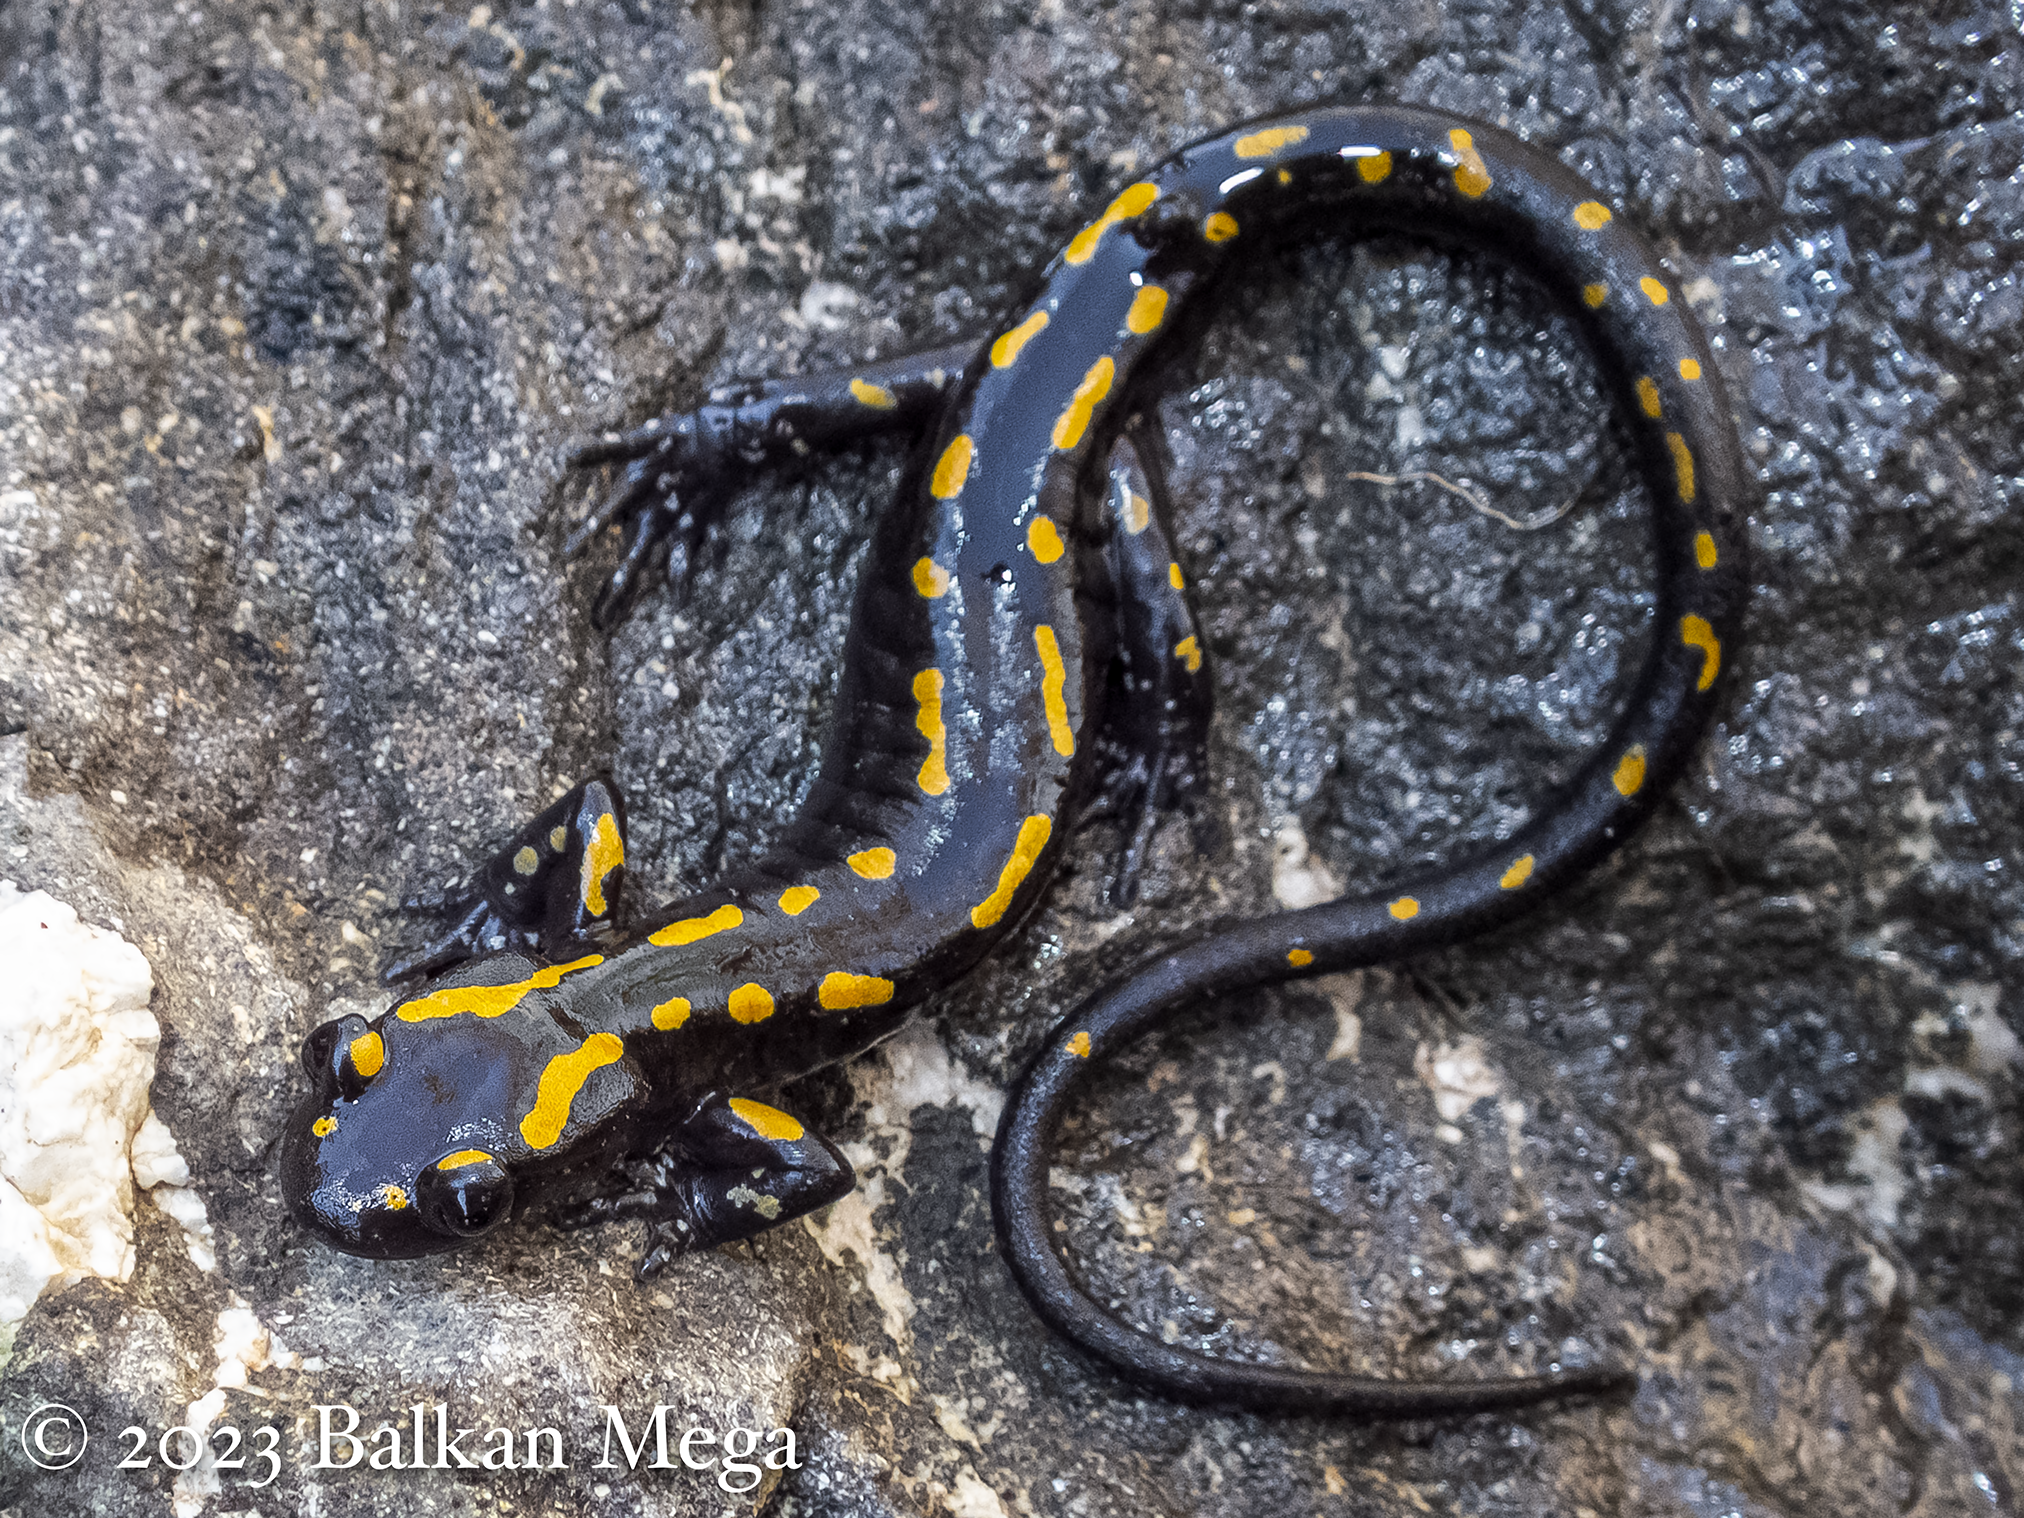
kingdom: Animalia
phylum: Chordata
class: Amphibia
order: Caudata
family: Salamandridae
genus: Mertensiella
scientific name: Mertensiella caucasica
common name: Caucasian salamander
